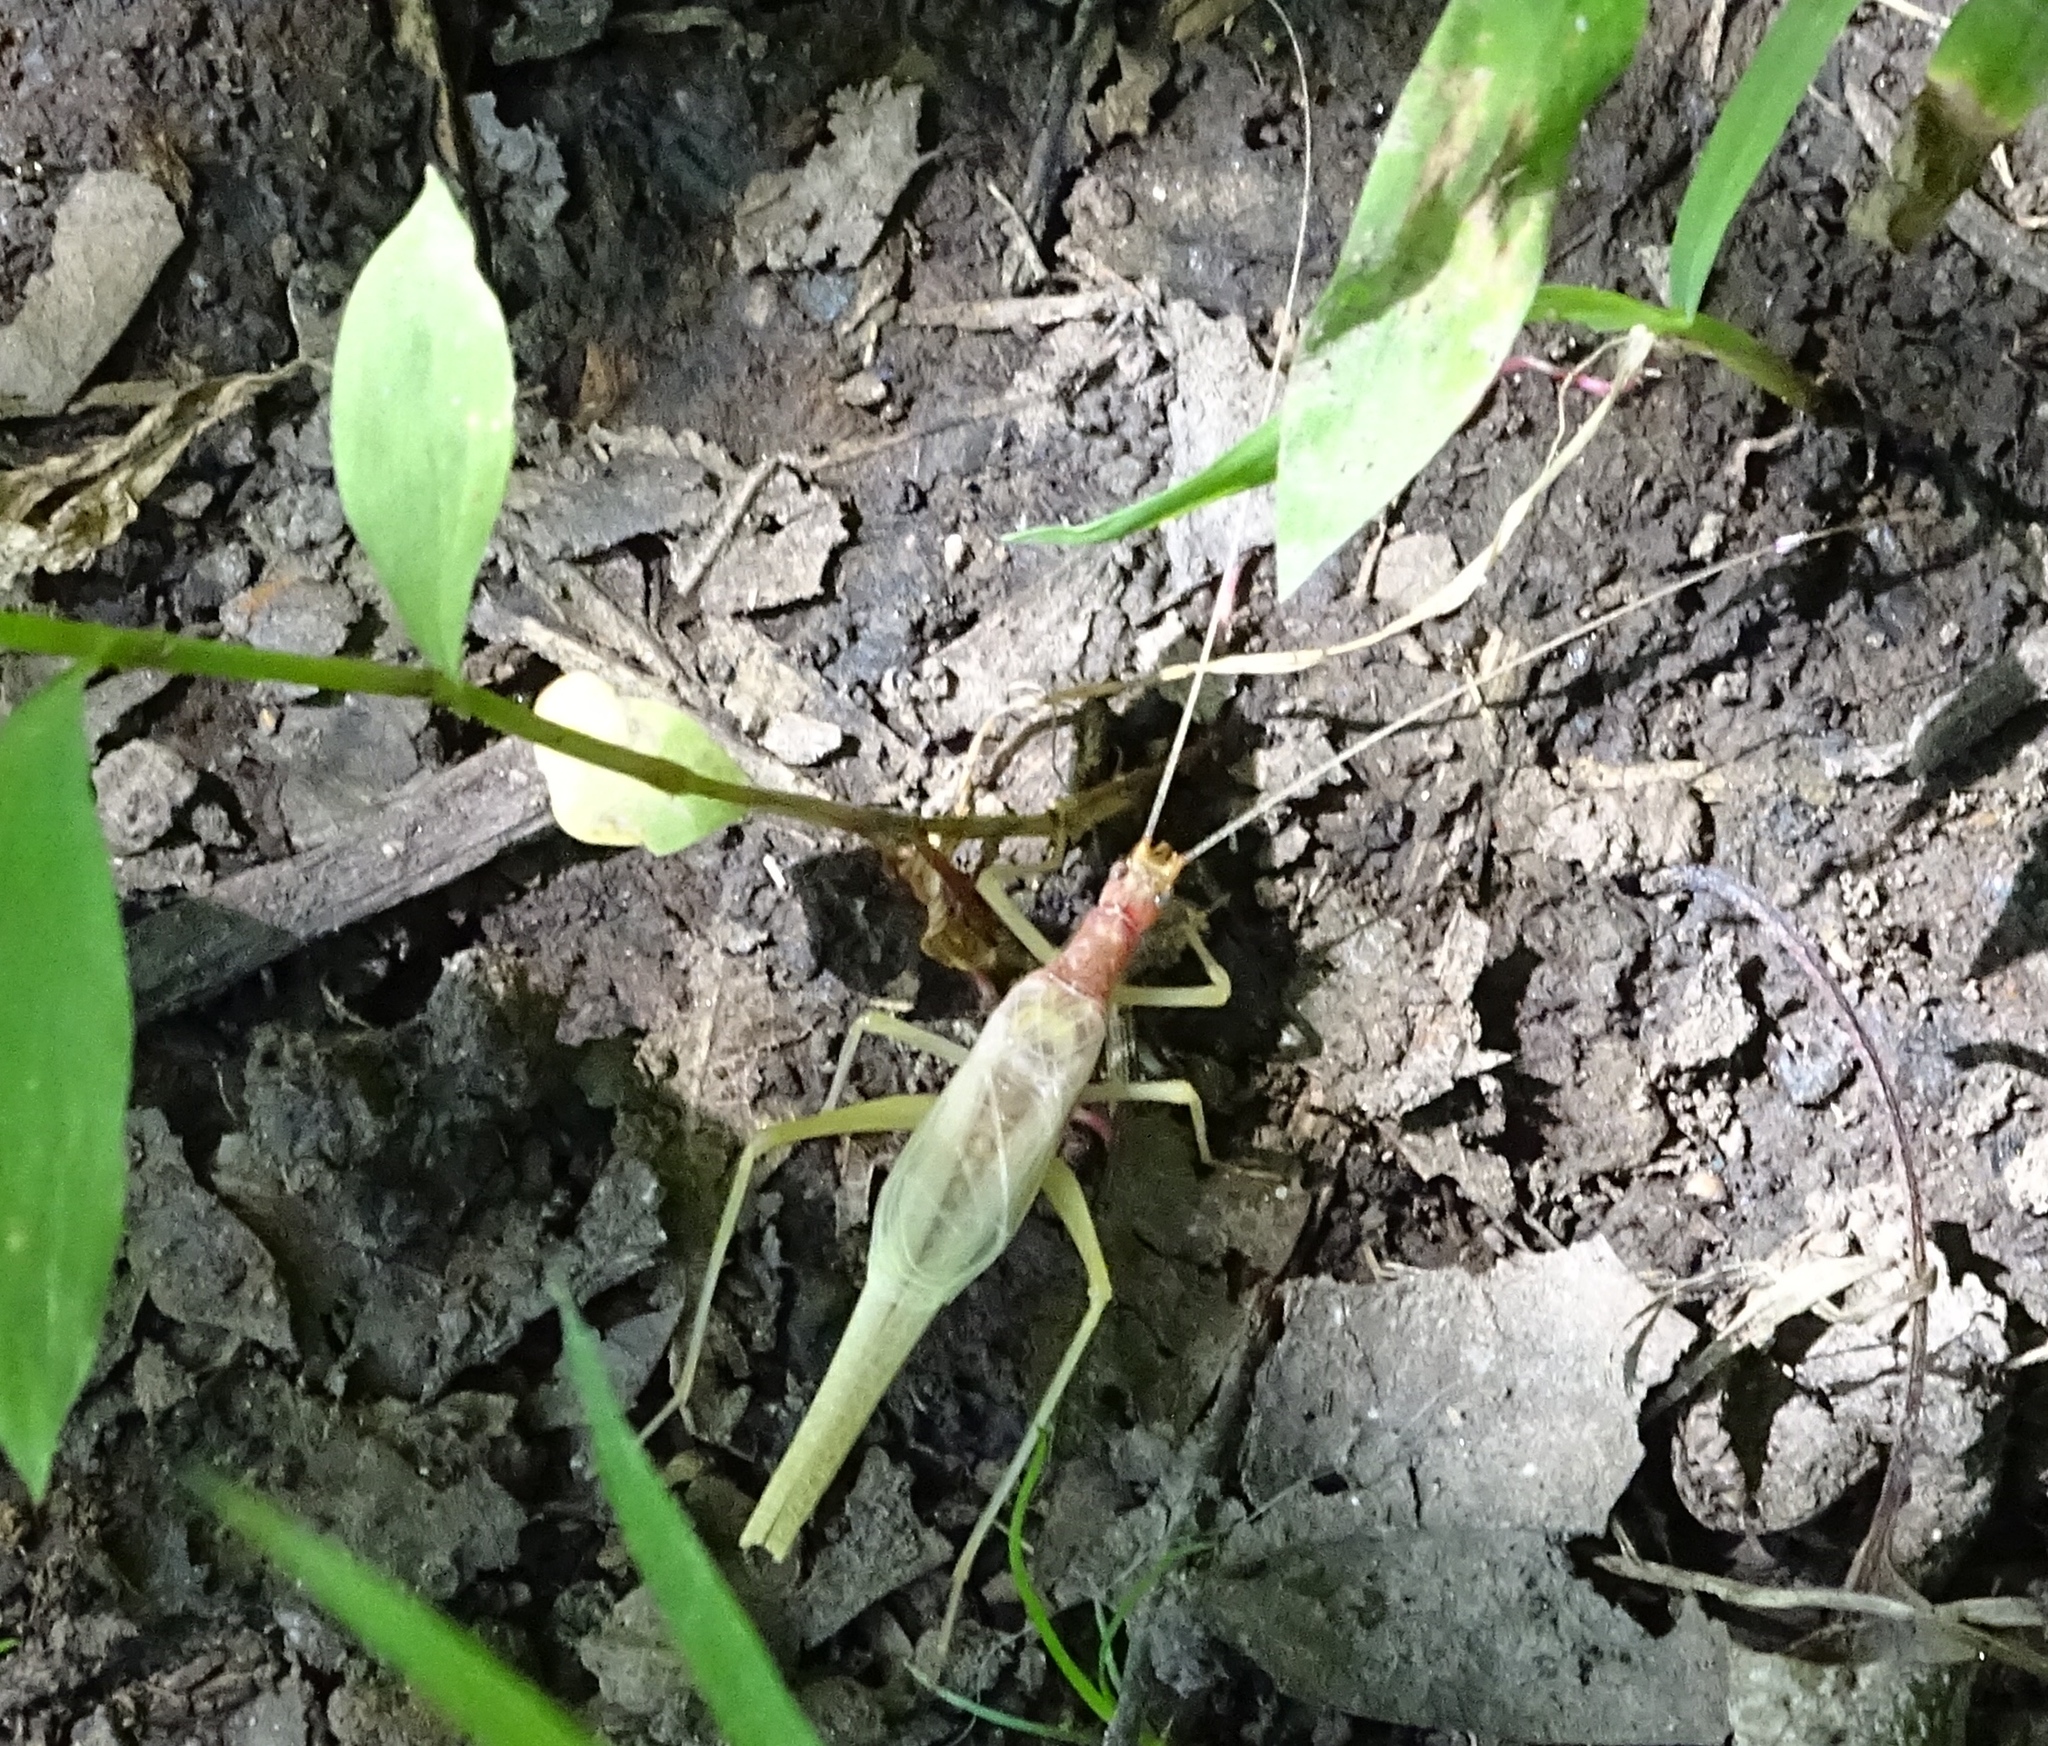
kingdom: Animalia
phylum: Arthropoda
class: Insecta
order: Orthoptera
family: Gryllidae
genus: Neoxabea
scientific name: Neoxabea bipunctata
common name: Two-spotted tree cricket
